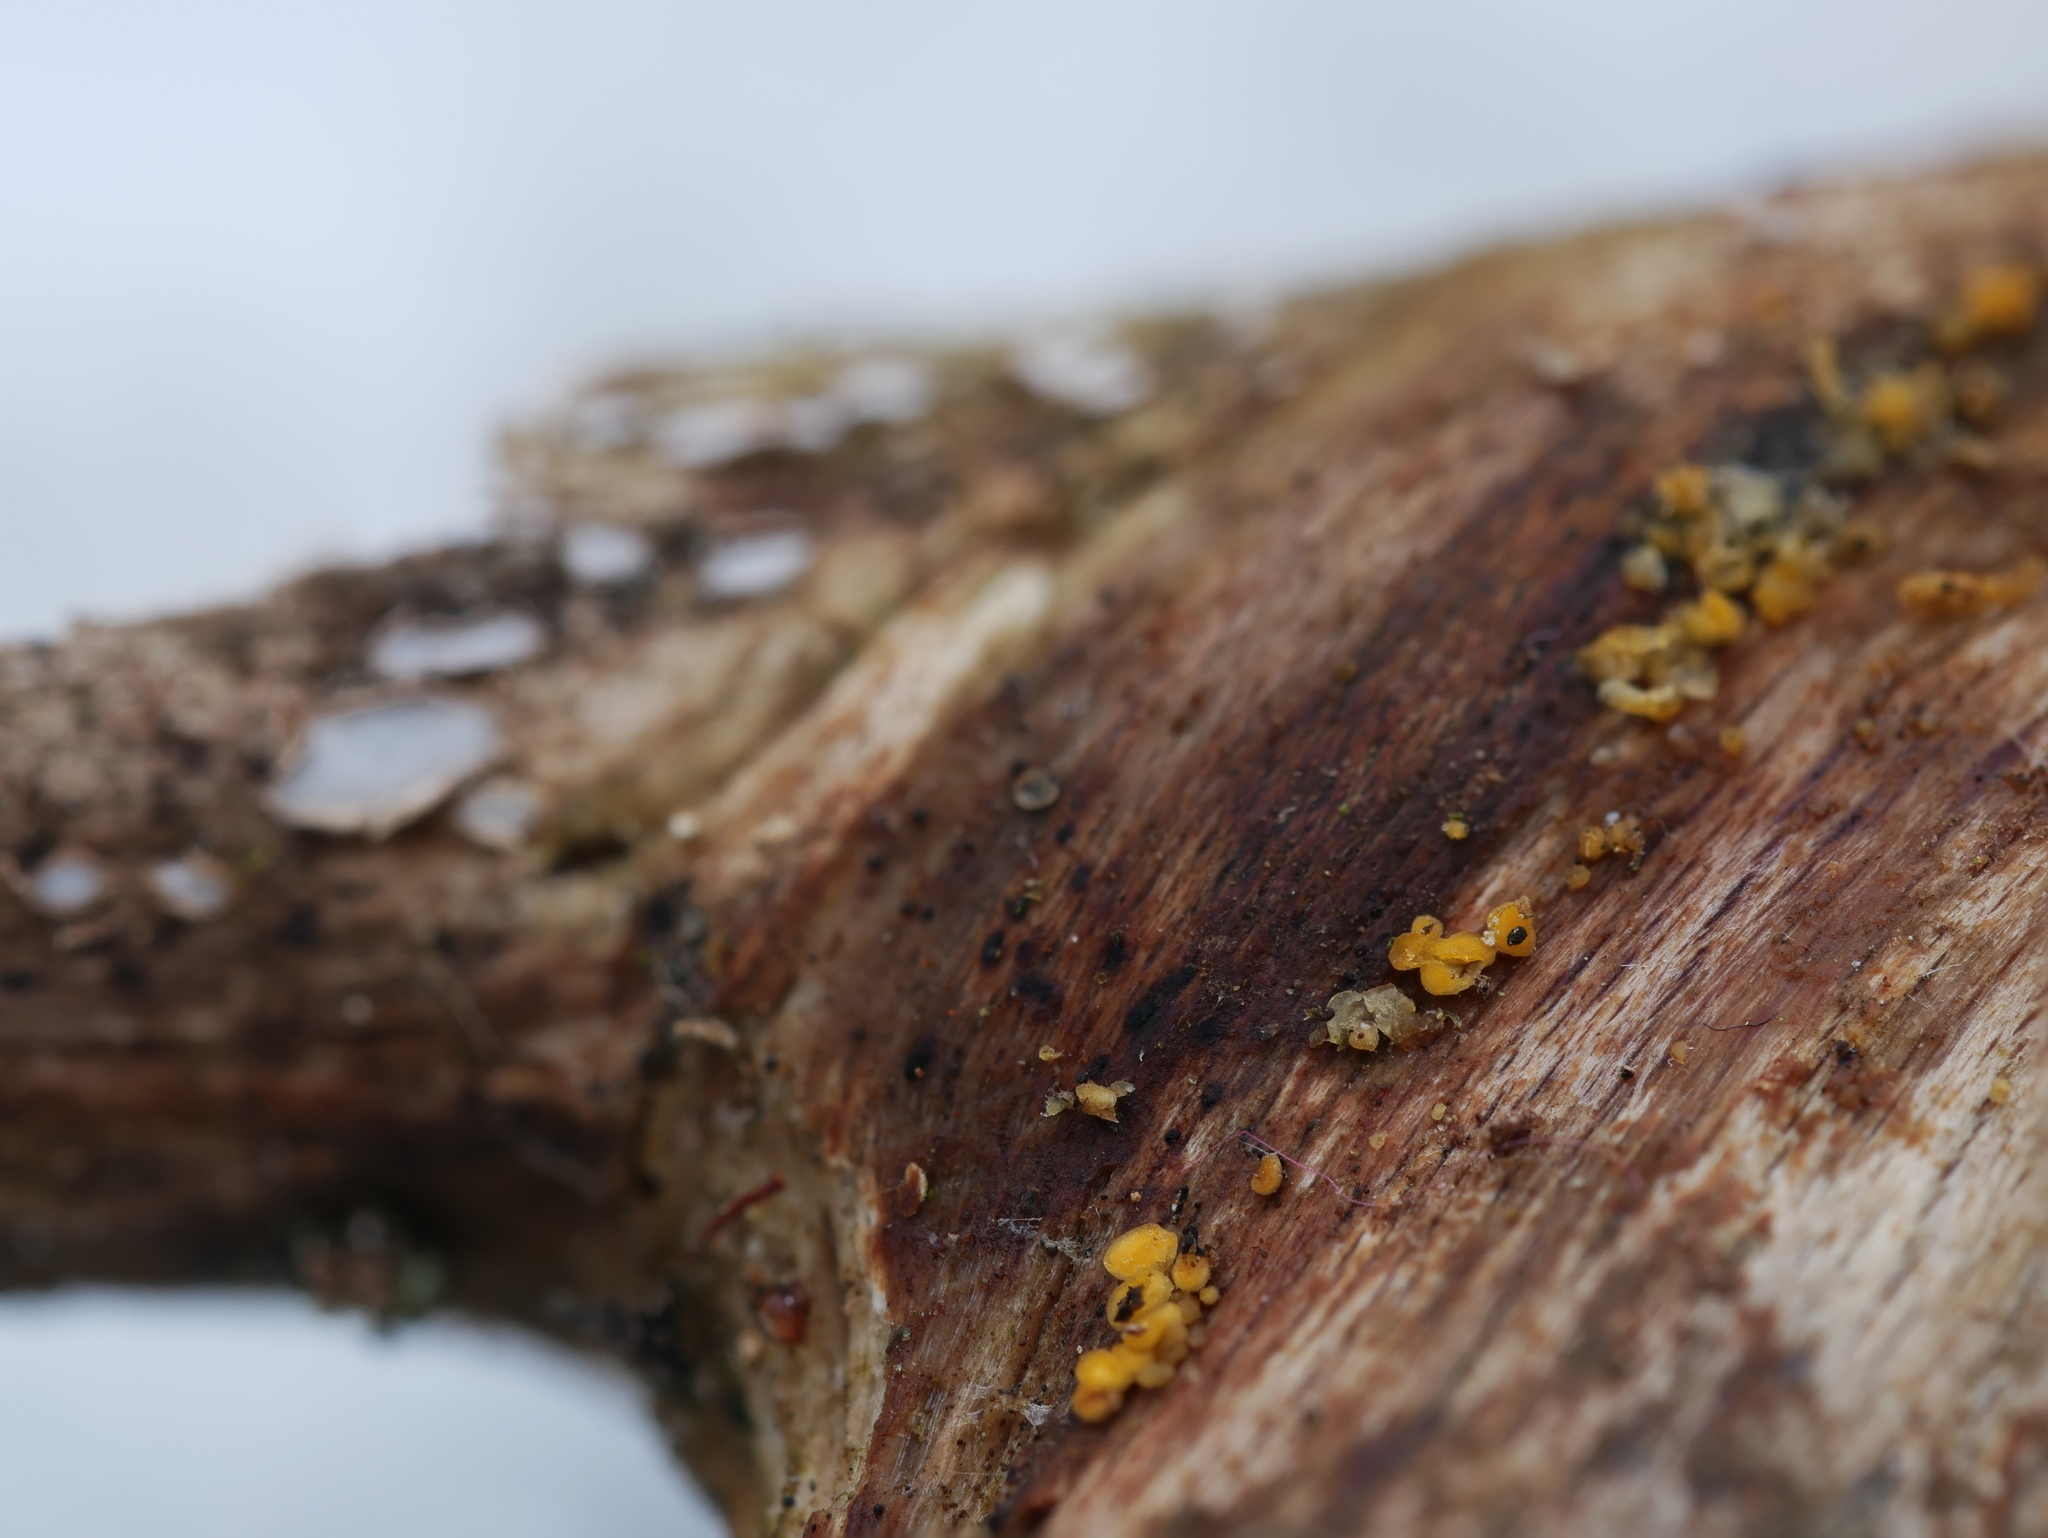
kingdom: Fungi
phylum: Ascomycota
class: Leotiomycetes
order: Helotiales
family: Pezizellaceae
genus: Calycina
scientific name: Calycina citrina
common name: Yellow fairy cups
